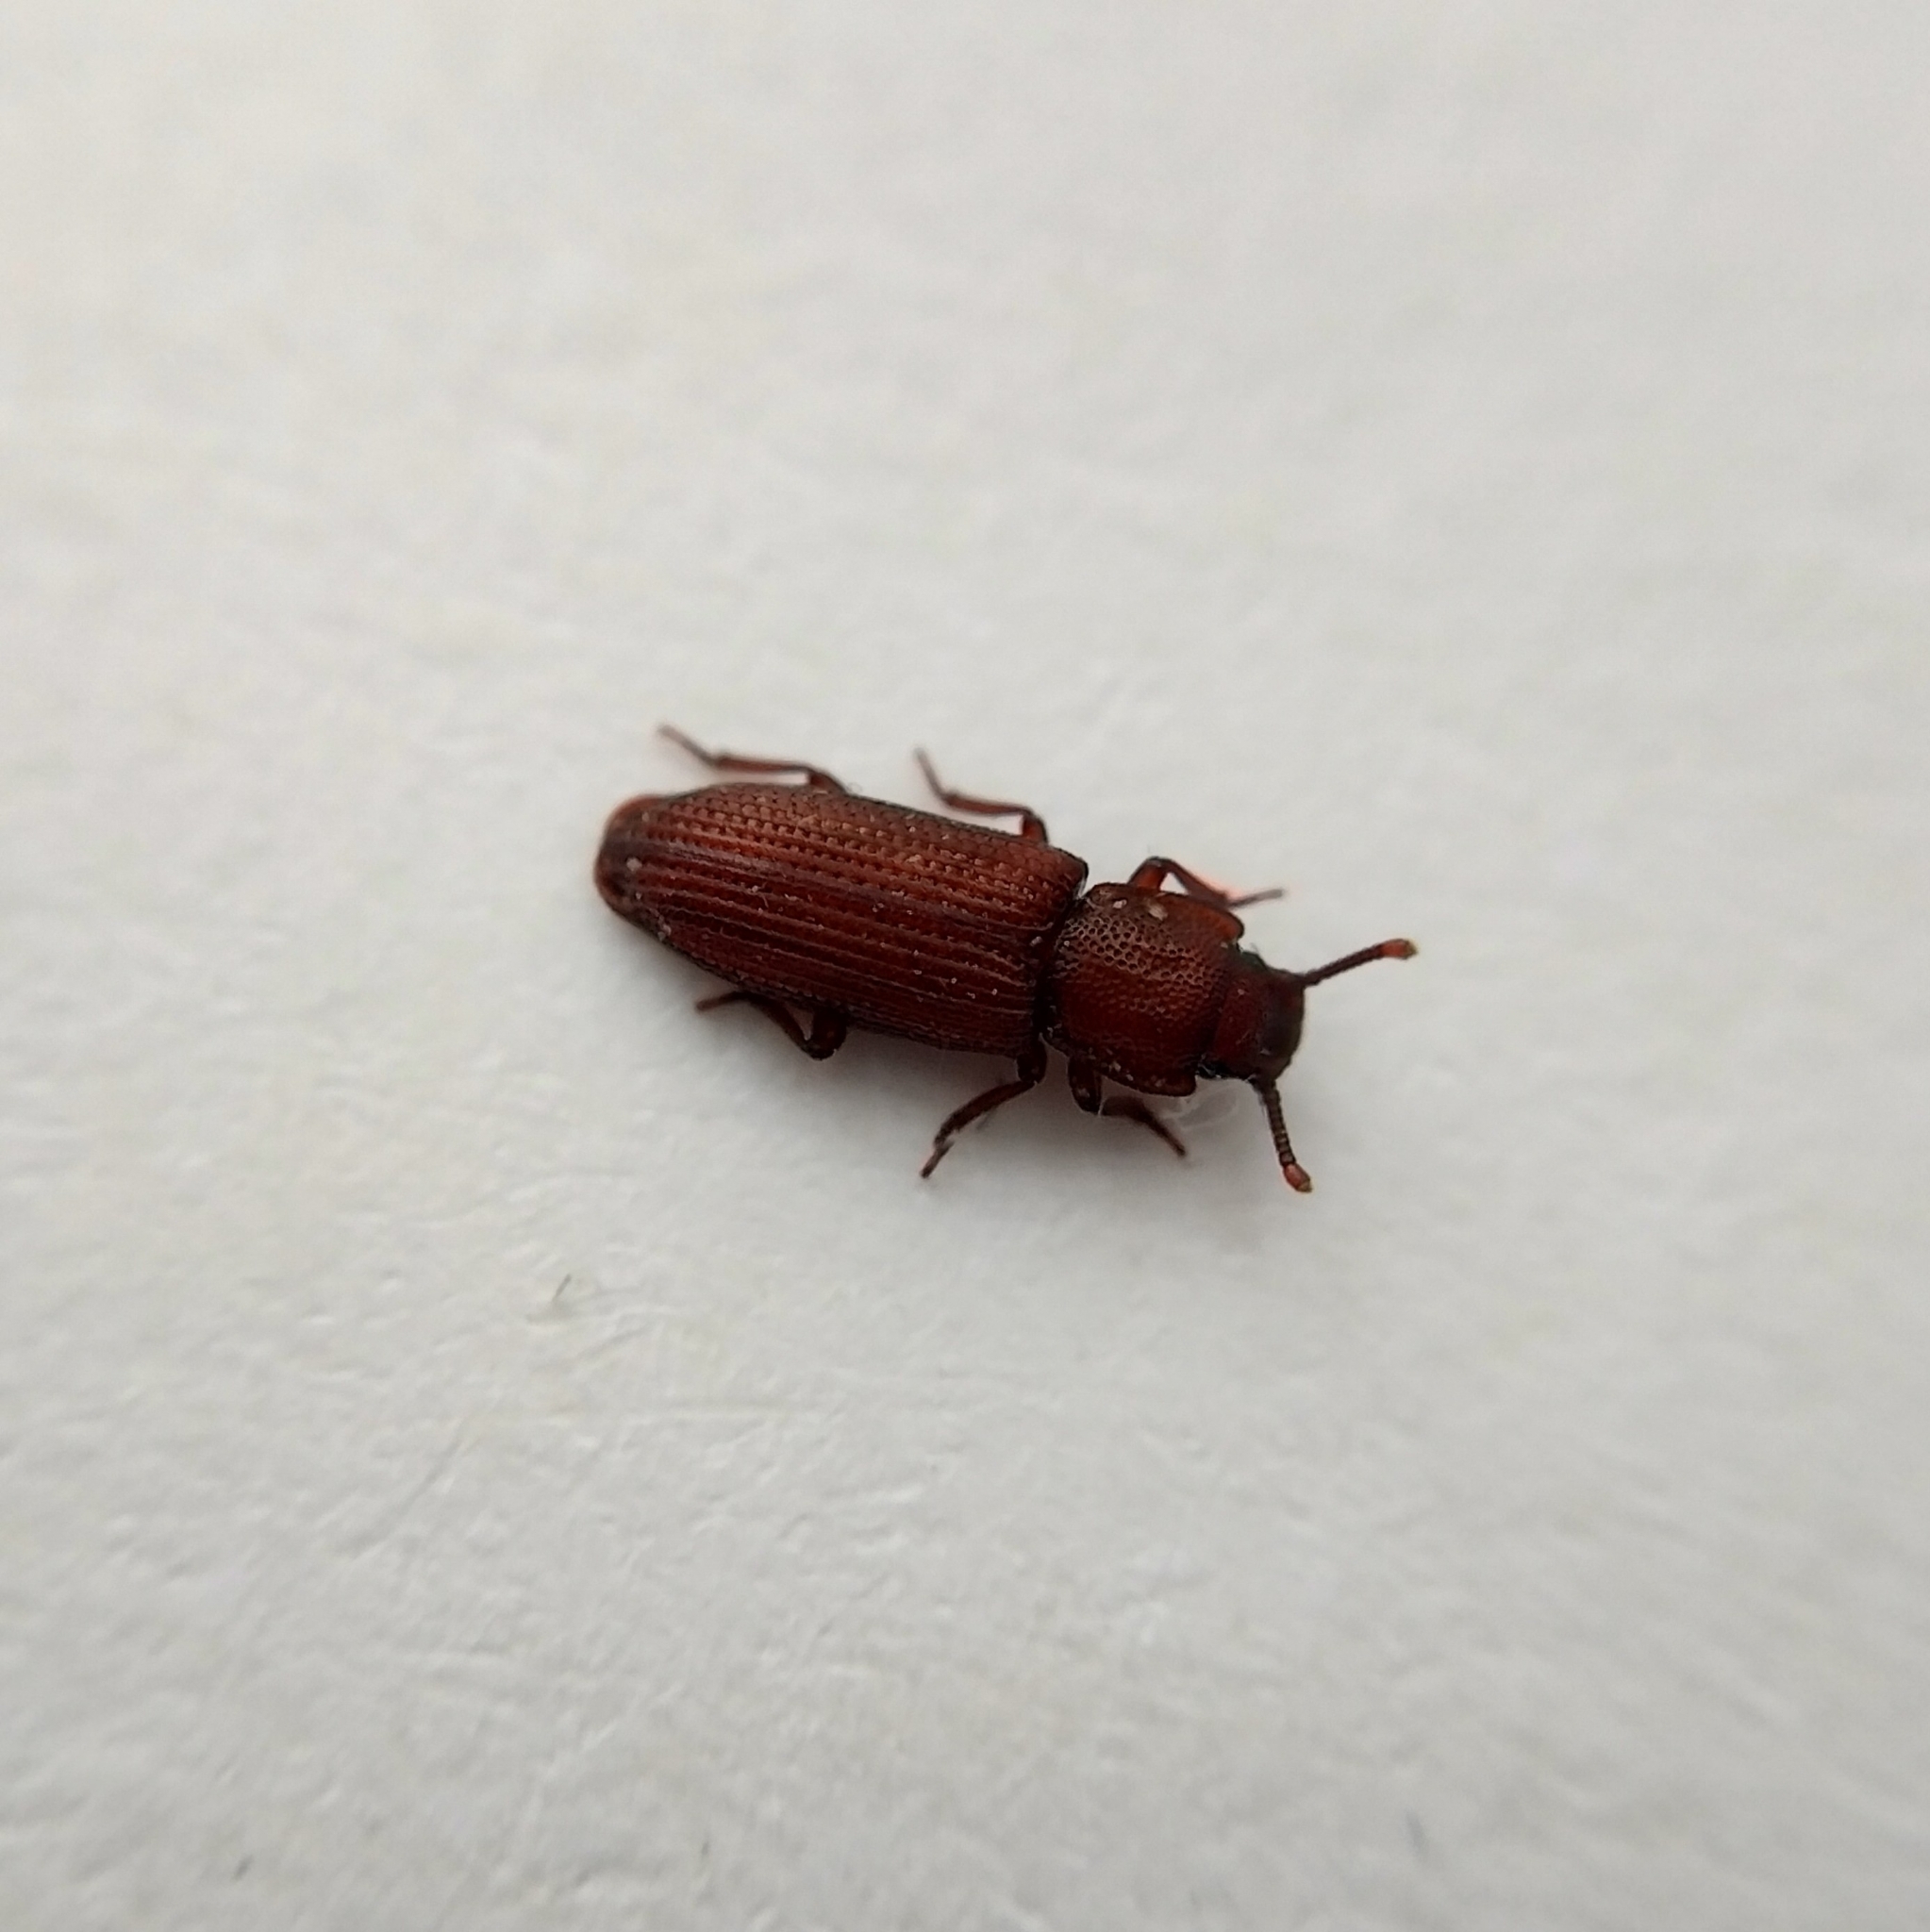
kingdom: Animalia
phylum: Arthropoda
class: Insecta
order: Coleoptera
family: Zopheridae
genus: Pycnomerus
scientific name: Pycnomerus terebrans
